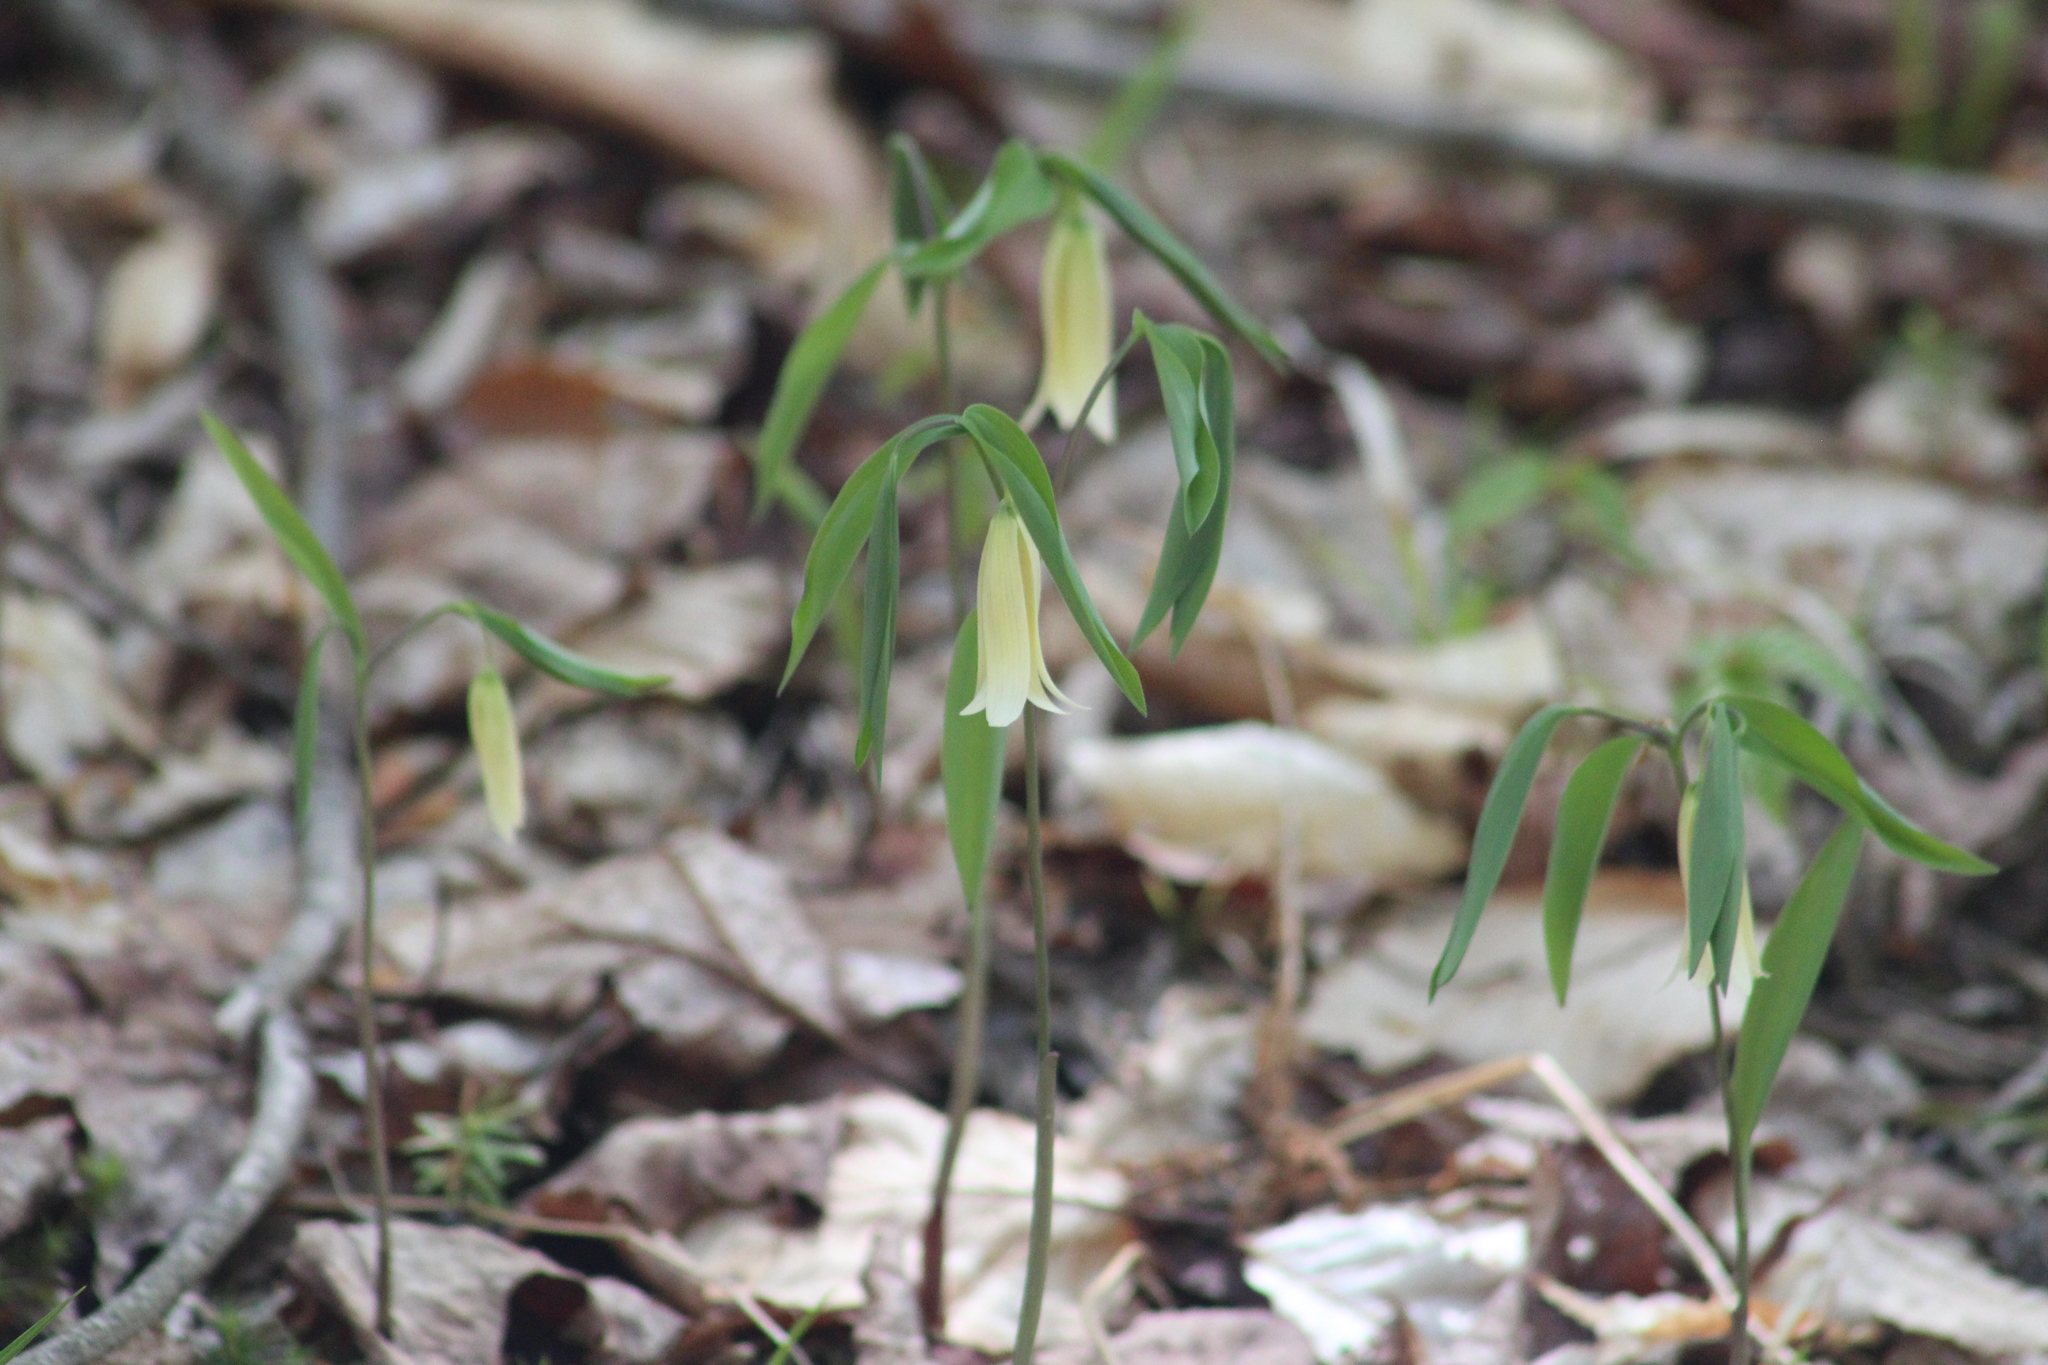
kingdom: Plantae
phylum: Tracheophyta
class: Liliopsida
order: Liliales
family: Colchicaceae
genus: Uvularia
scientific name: Uvularia sessilifolia
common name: Straw-lily
